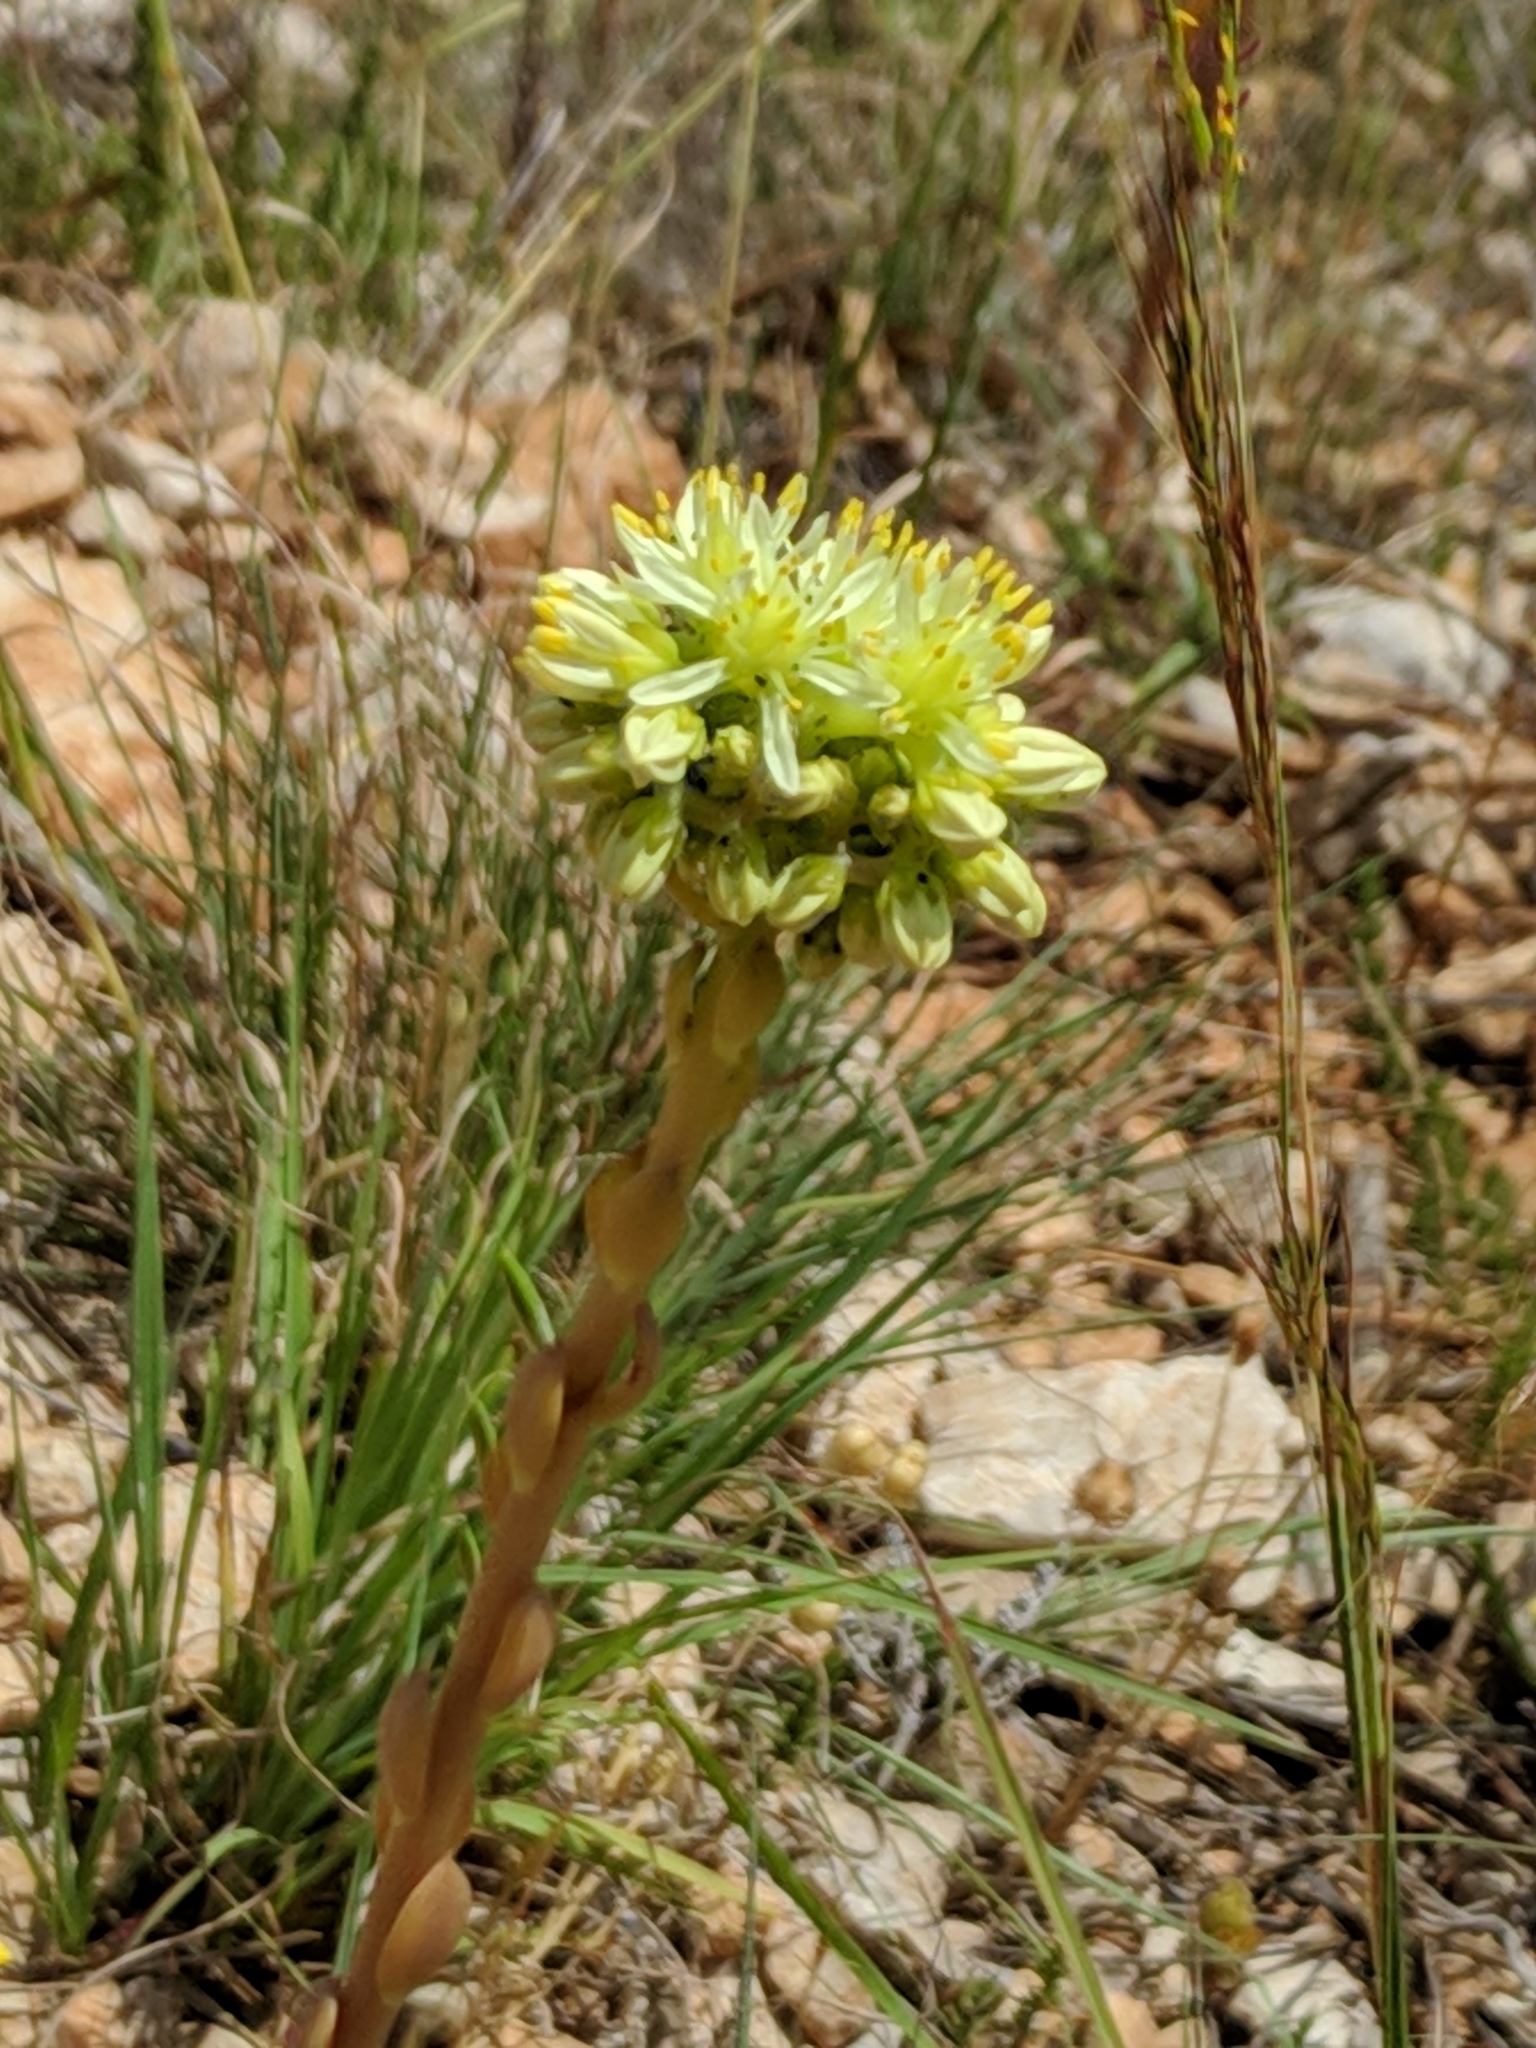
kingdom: Plantae
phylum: Tracheophyta
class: Magnoliopsida
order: Saxifragales
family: Crassulaceae
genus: Petrosedum
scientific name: Petrosedum sediforme
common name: Pale stonecrop
